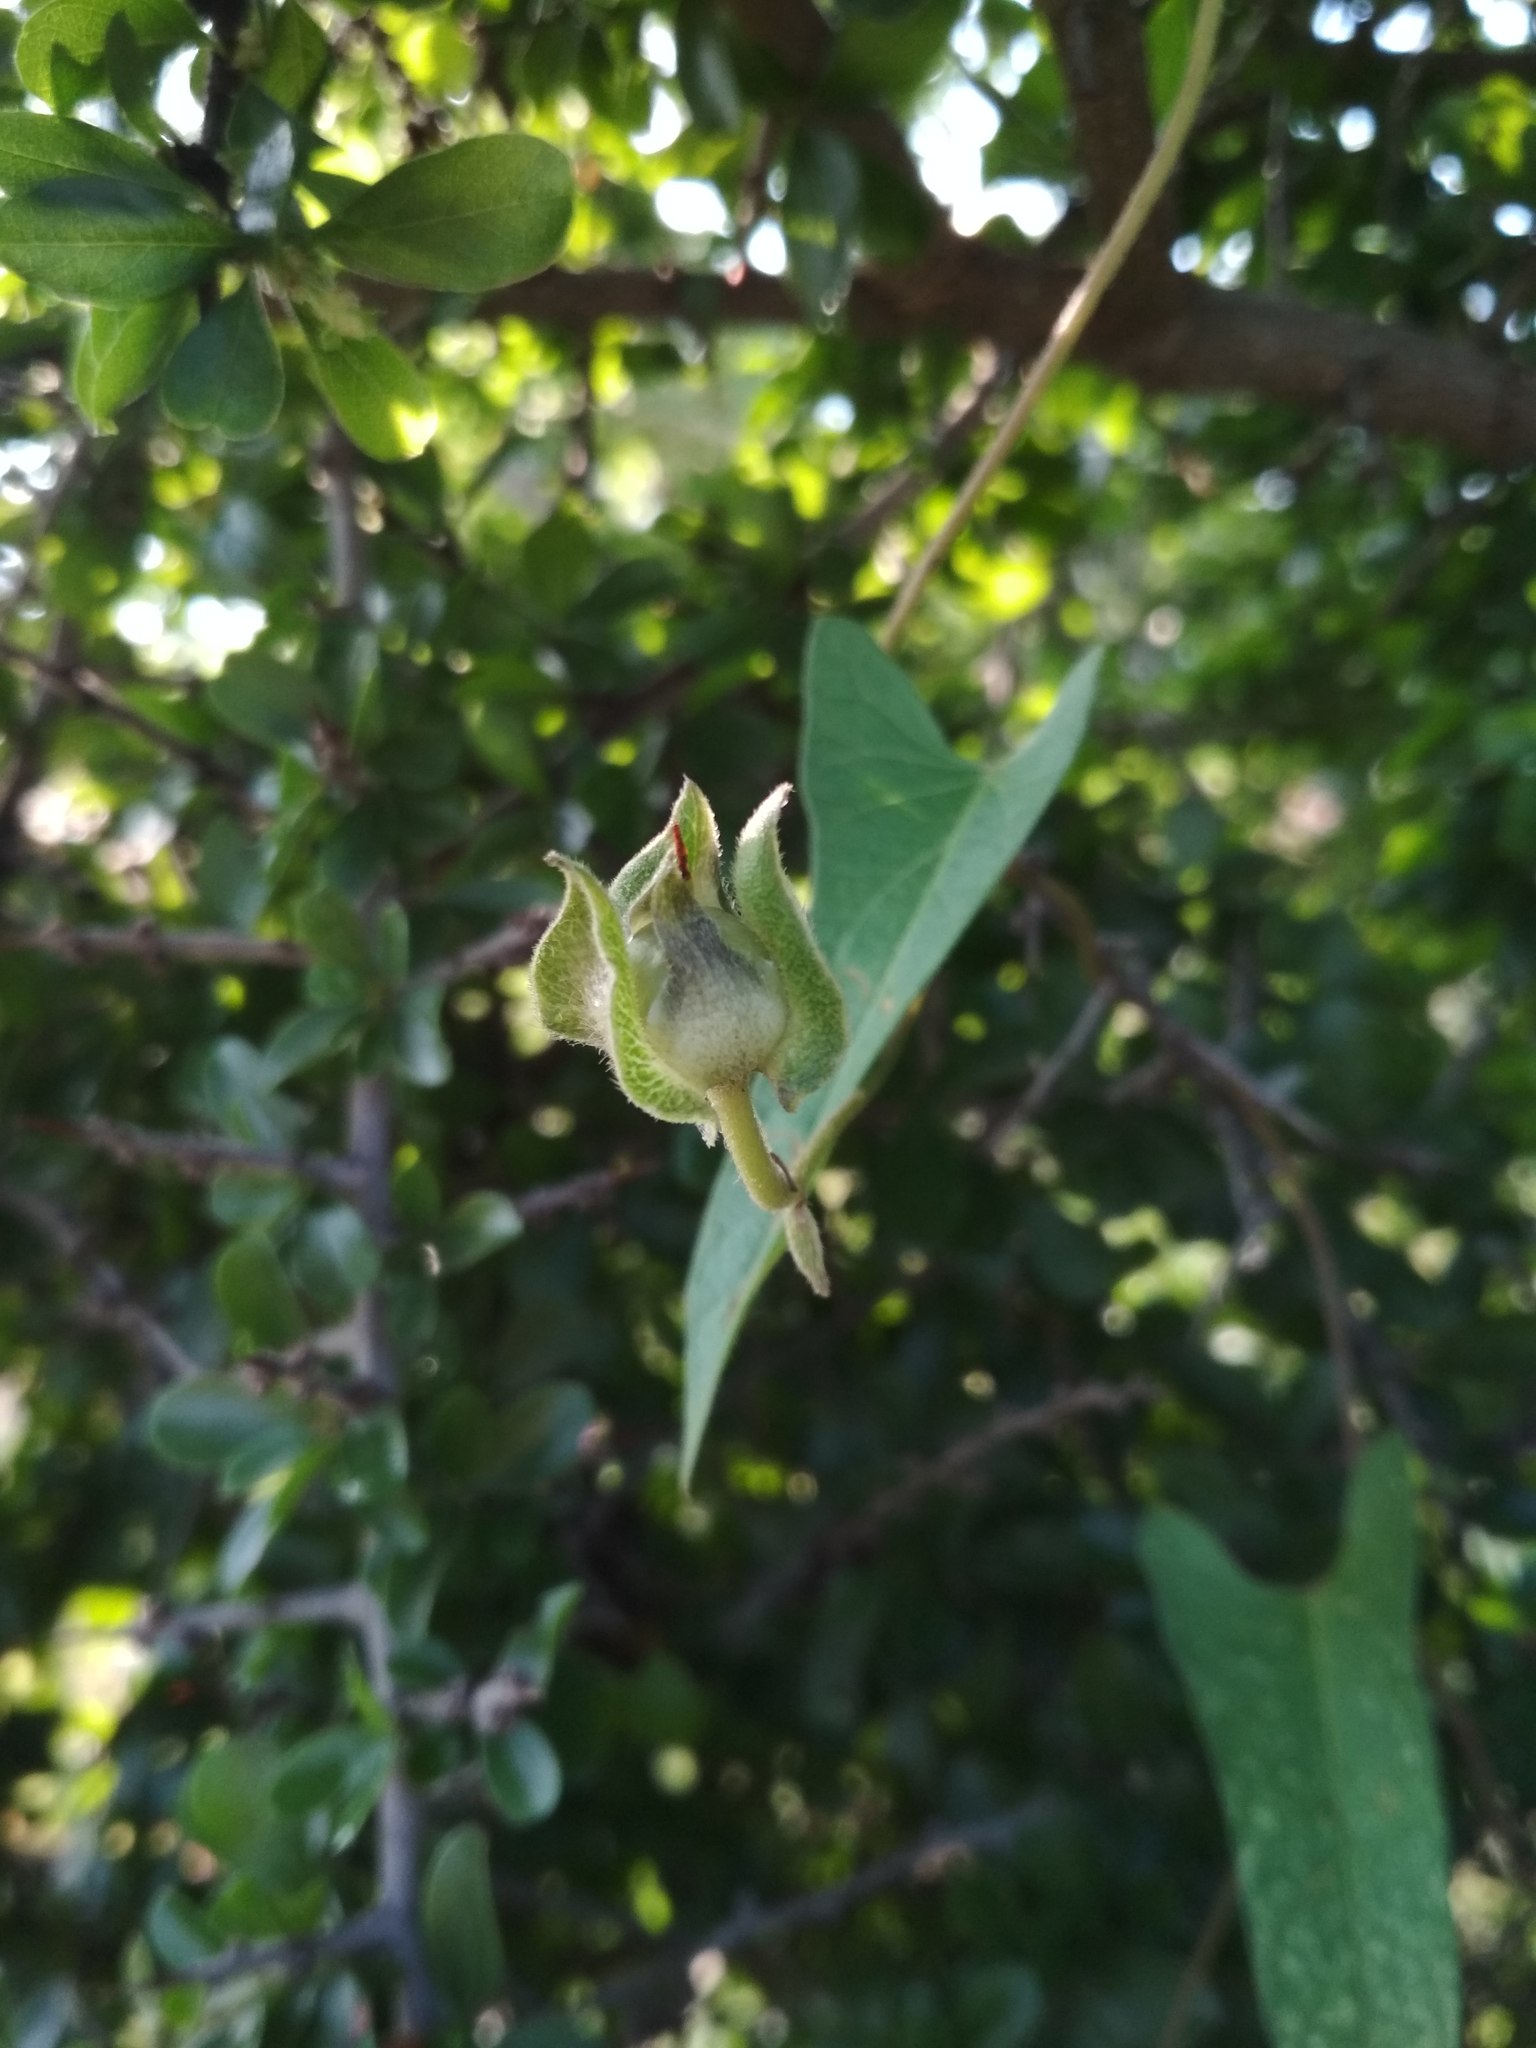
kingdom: Plantae
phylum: Tracheophyta
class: Magnoliopsida
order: Solanales
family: Convolvulaceae
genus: Ipomoea
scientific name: Ipomoea decasperma
